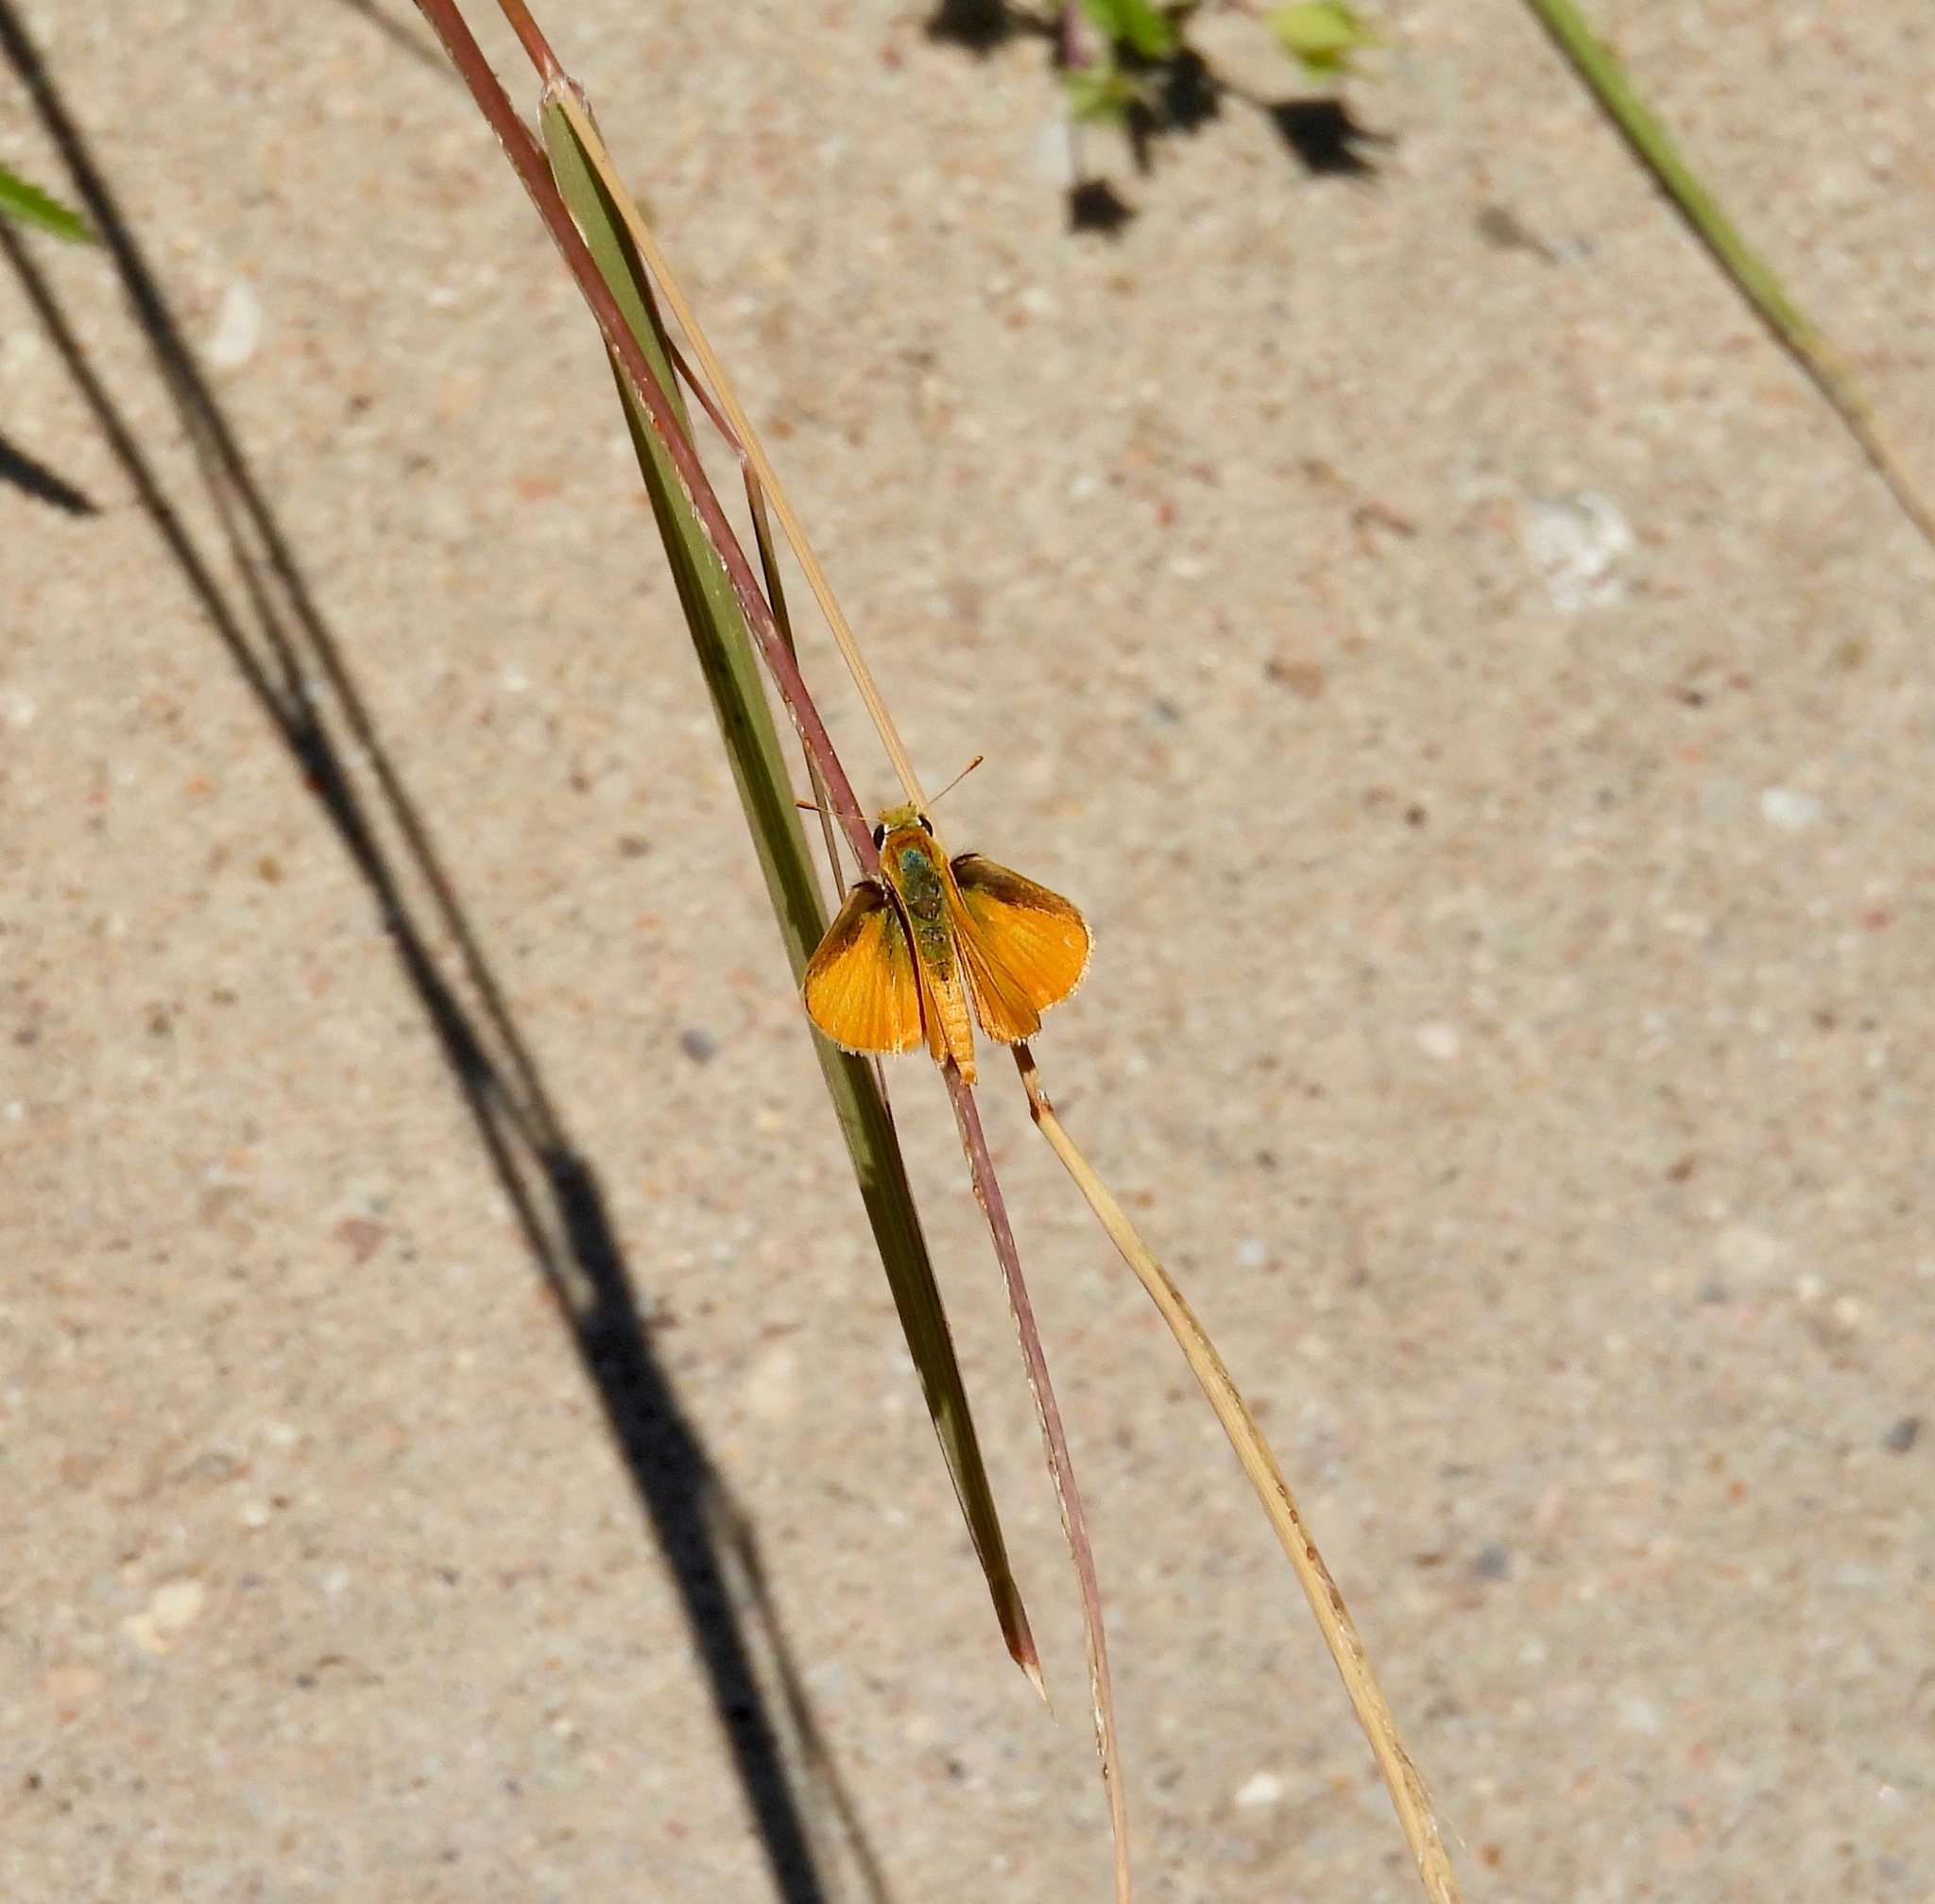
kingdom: Animalia
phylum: Arthropoda
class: Insecta
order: Lepidoptera
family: Hesperiidae
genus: Copaeodes
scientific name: Copaeodes aurantiaca
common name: Orange skipperling
